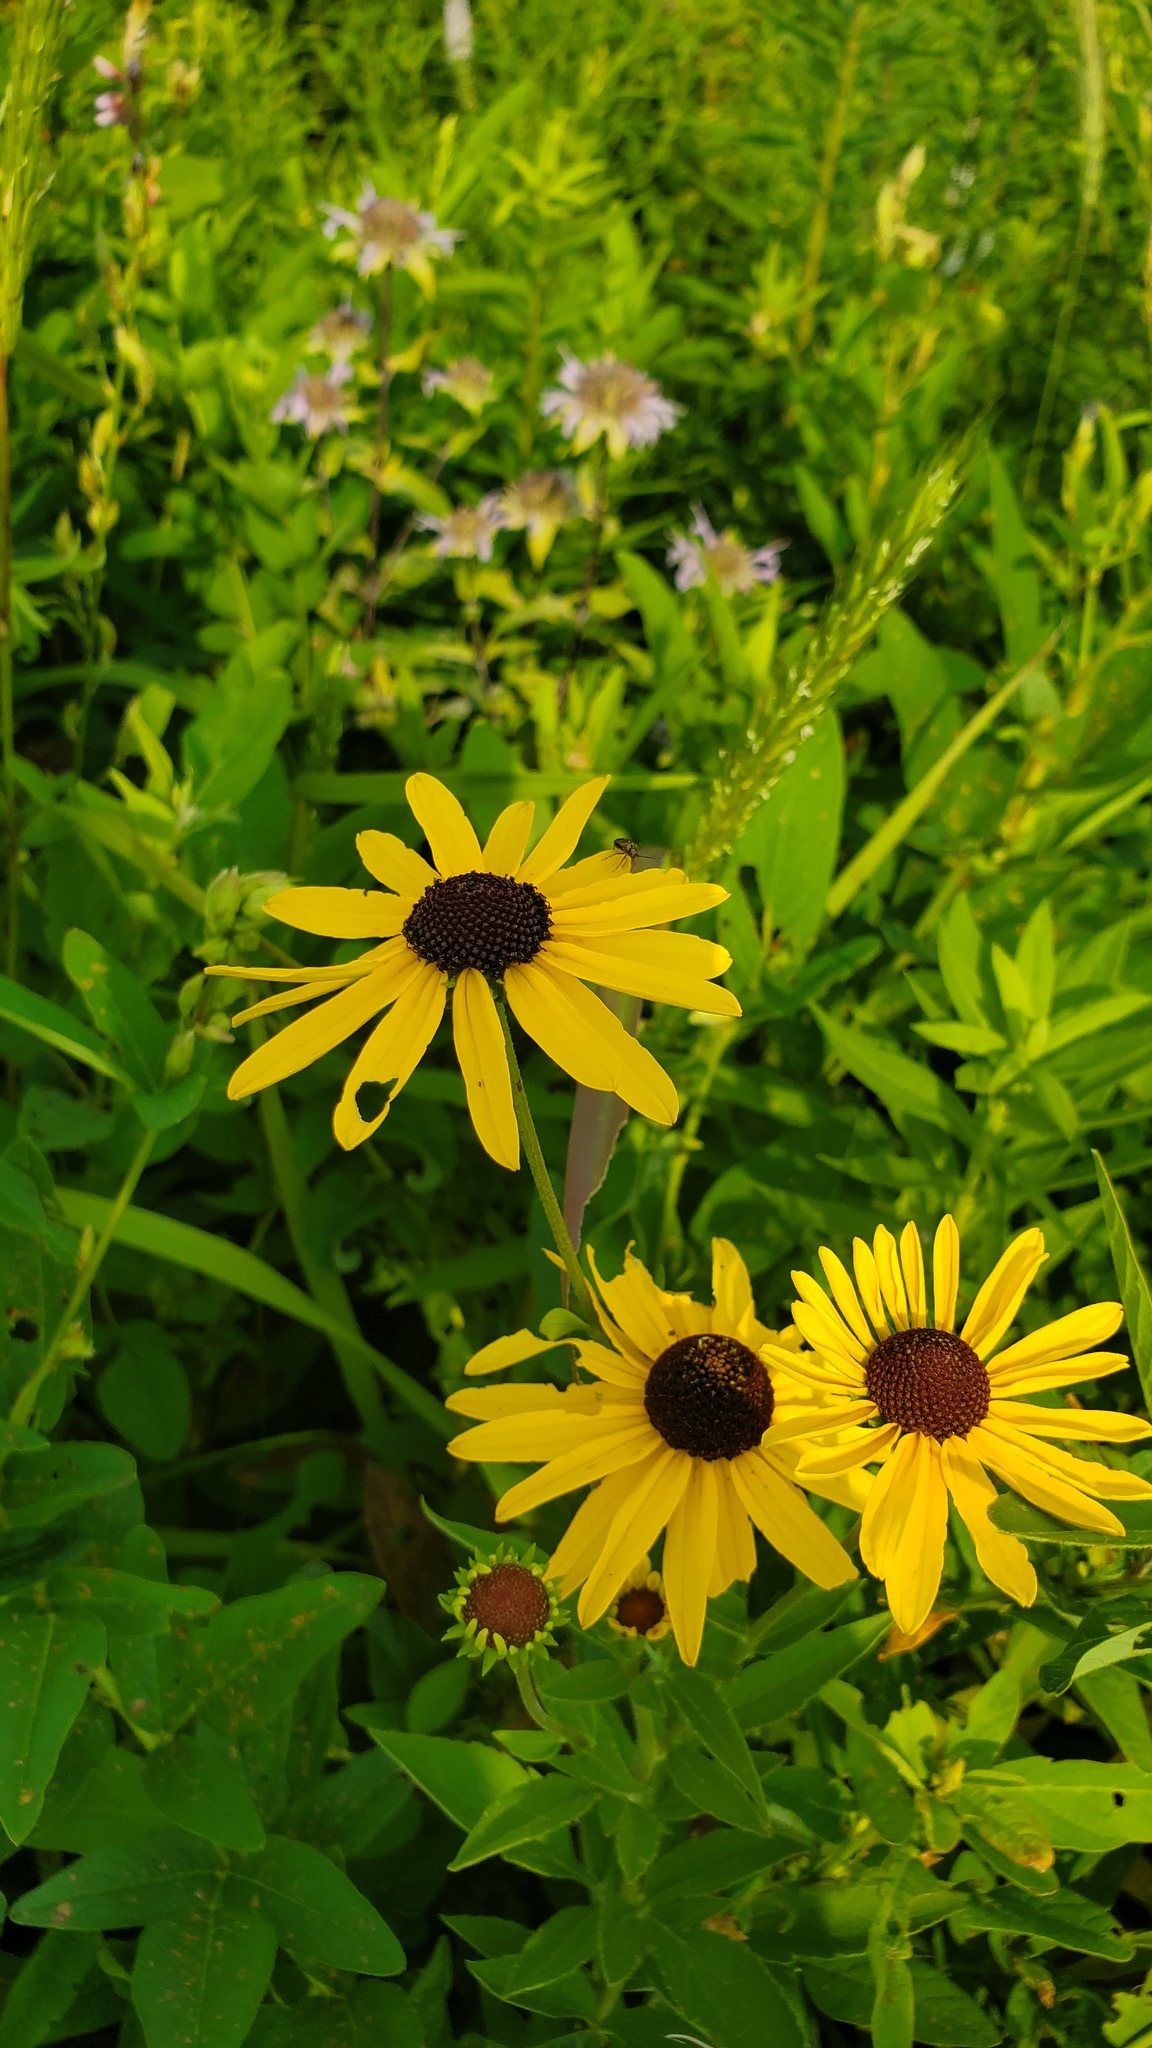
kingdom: Plantae
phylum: Tracheophyta
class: Magnoliopsida
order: Asterales
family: Asteraceae
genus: Rudbeckia
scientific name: Rudbeckia subtomentosa
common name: Sweet coneflower
